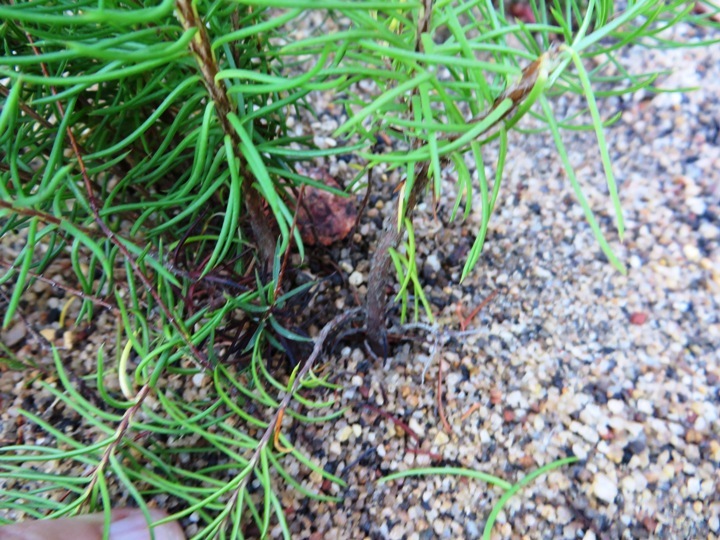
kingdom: Plantae
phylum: Tracheophyta
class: Magnoliopsida
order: Ericales
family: Ericaceae
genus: Erica
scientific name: Erica grandiflora
